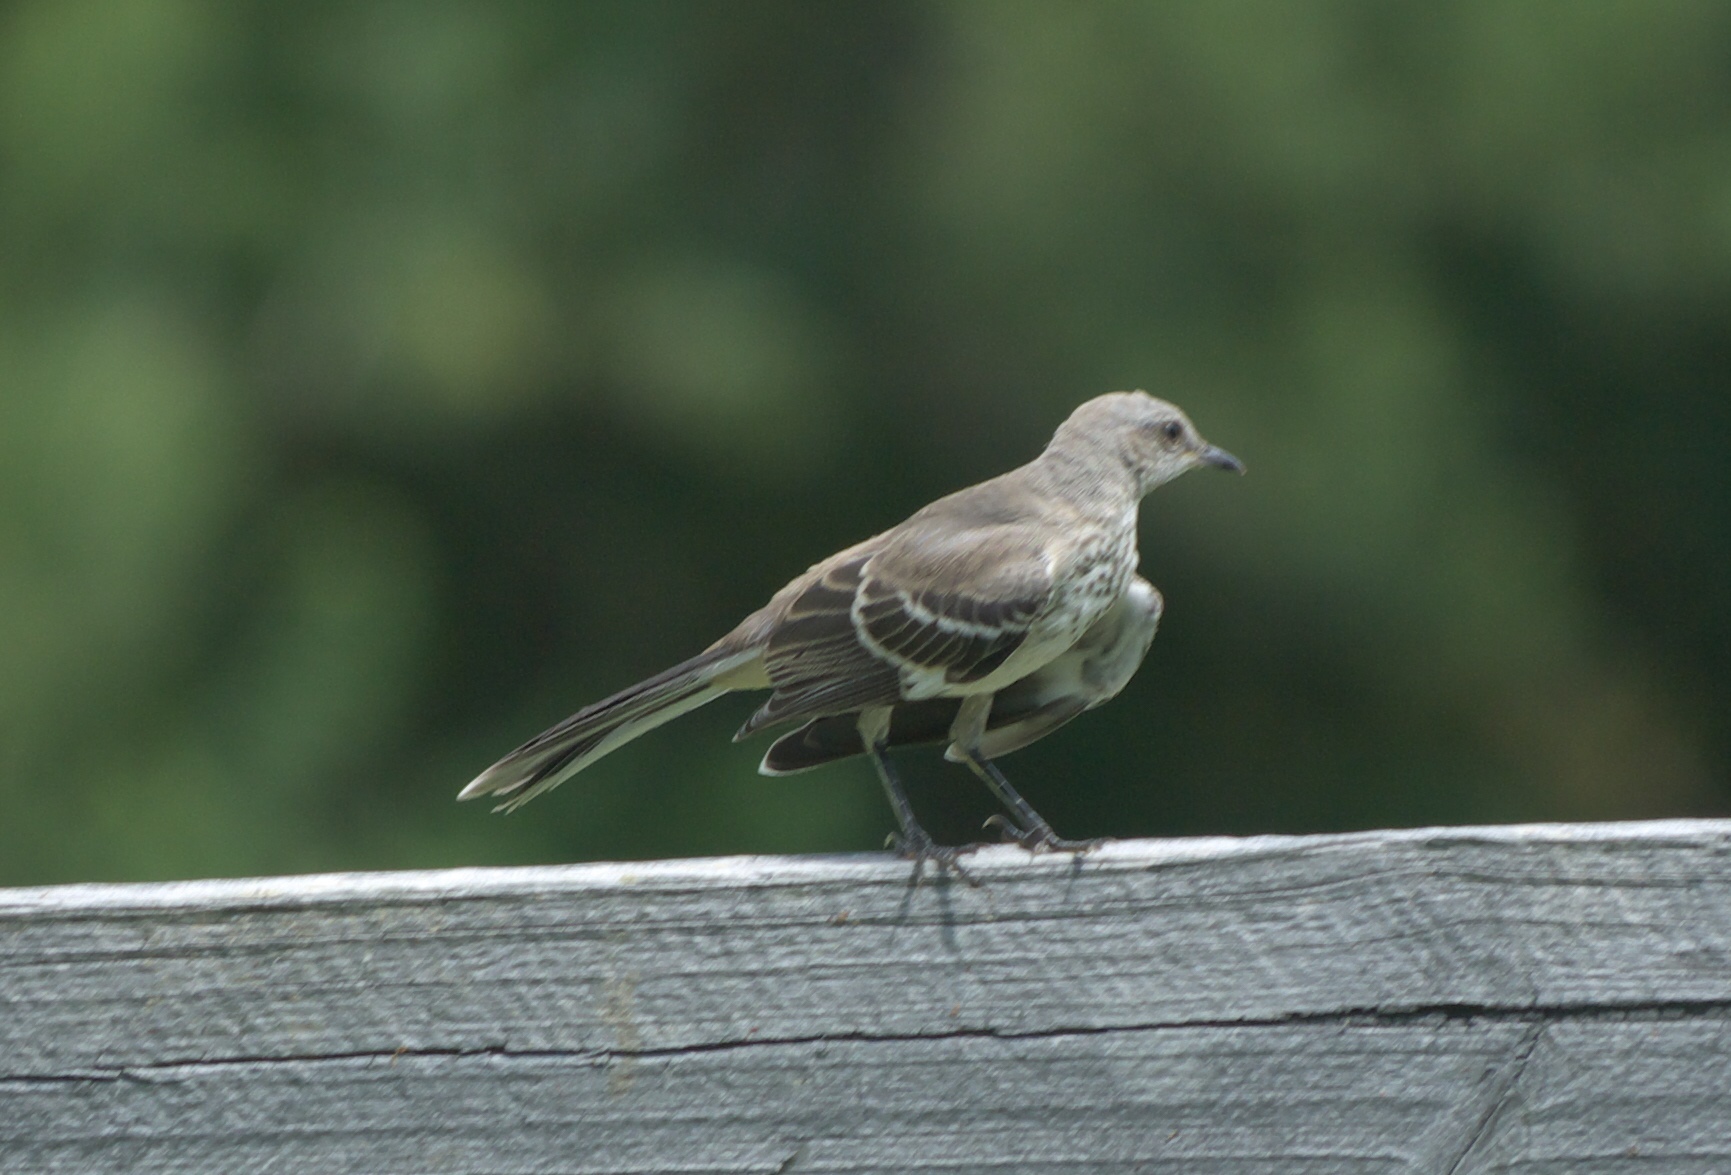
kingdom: Animalia
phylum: Chordata
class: Aves
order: Passeriformes
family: Mimidae
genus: Mimus
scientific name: Mimus polyglottos
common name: Northern mockingbird
